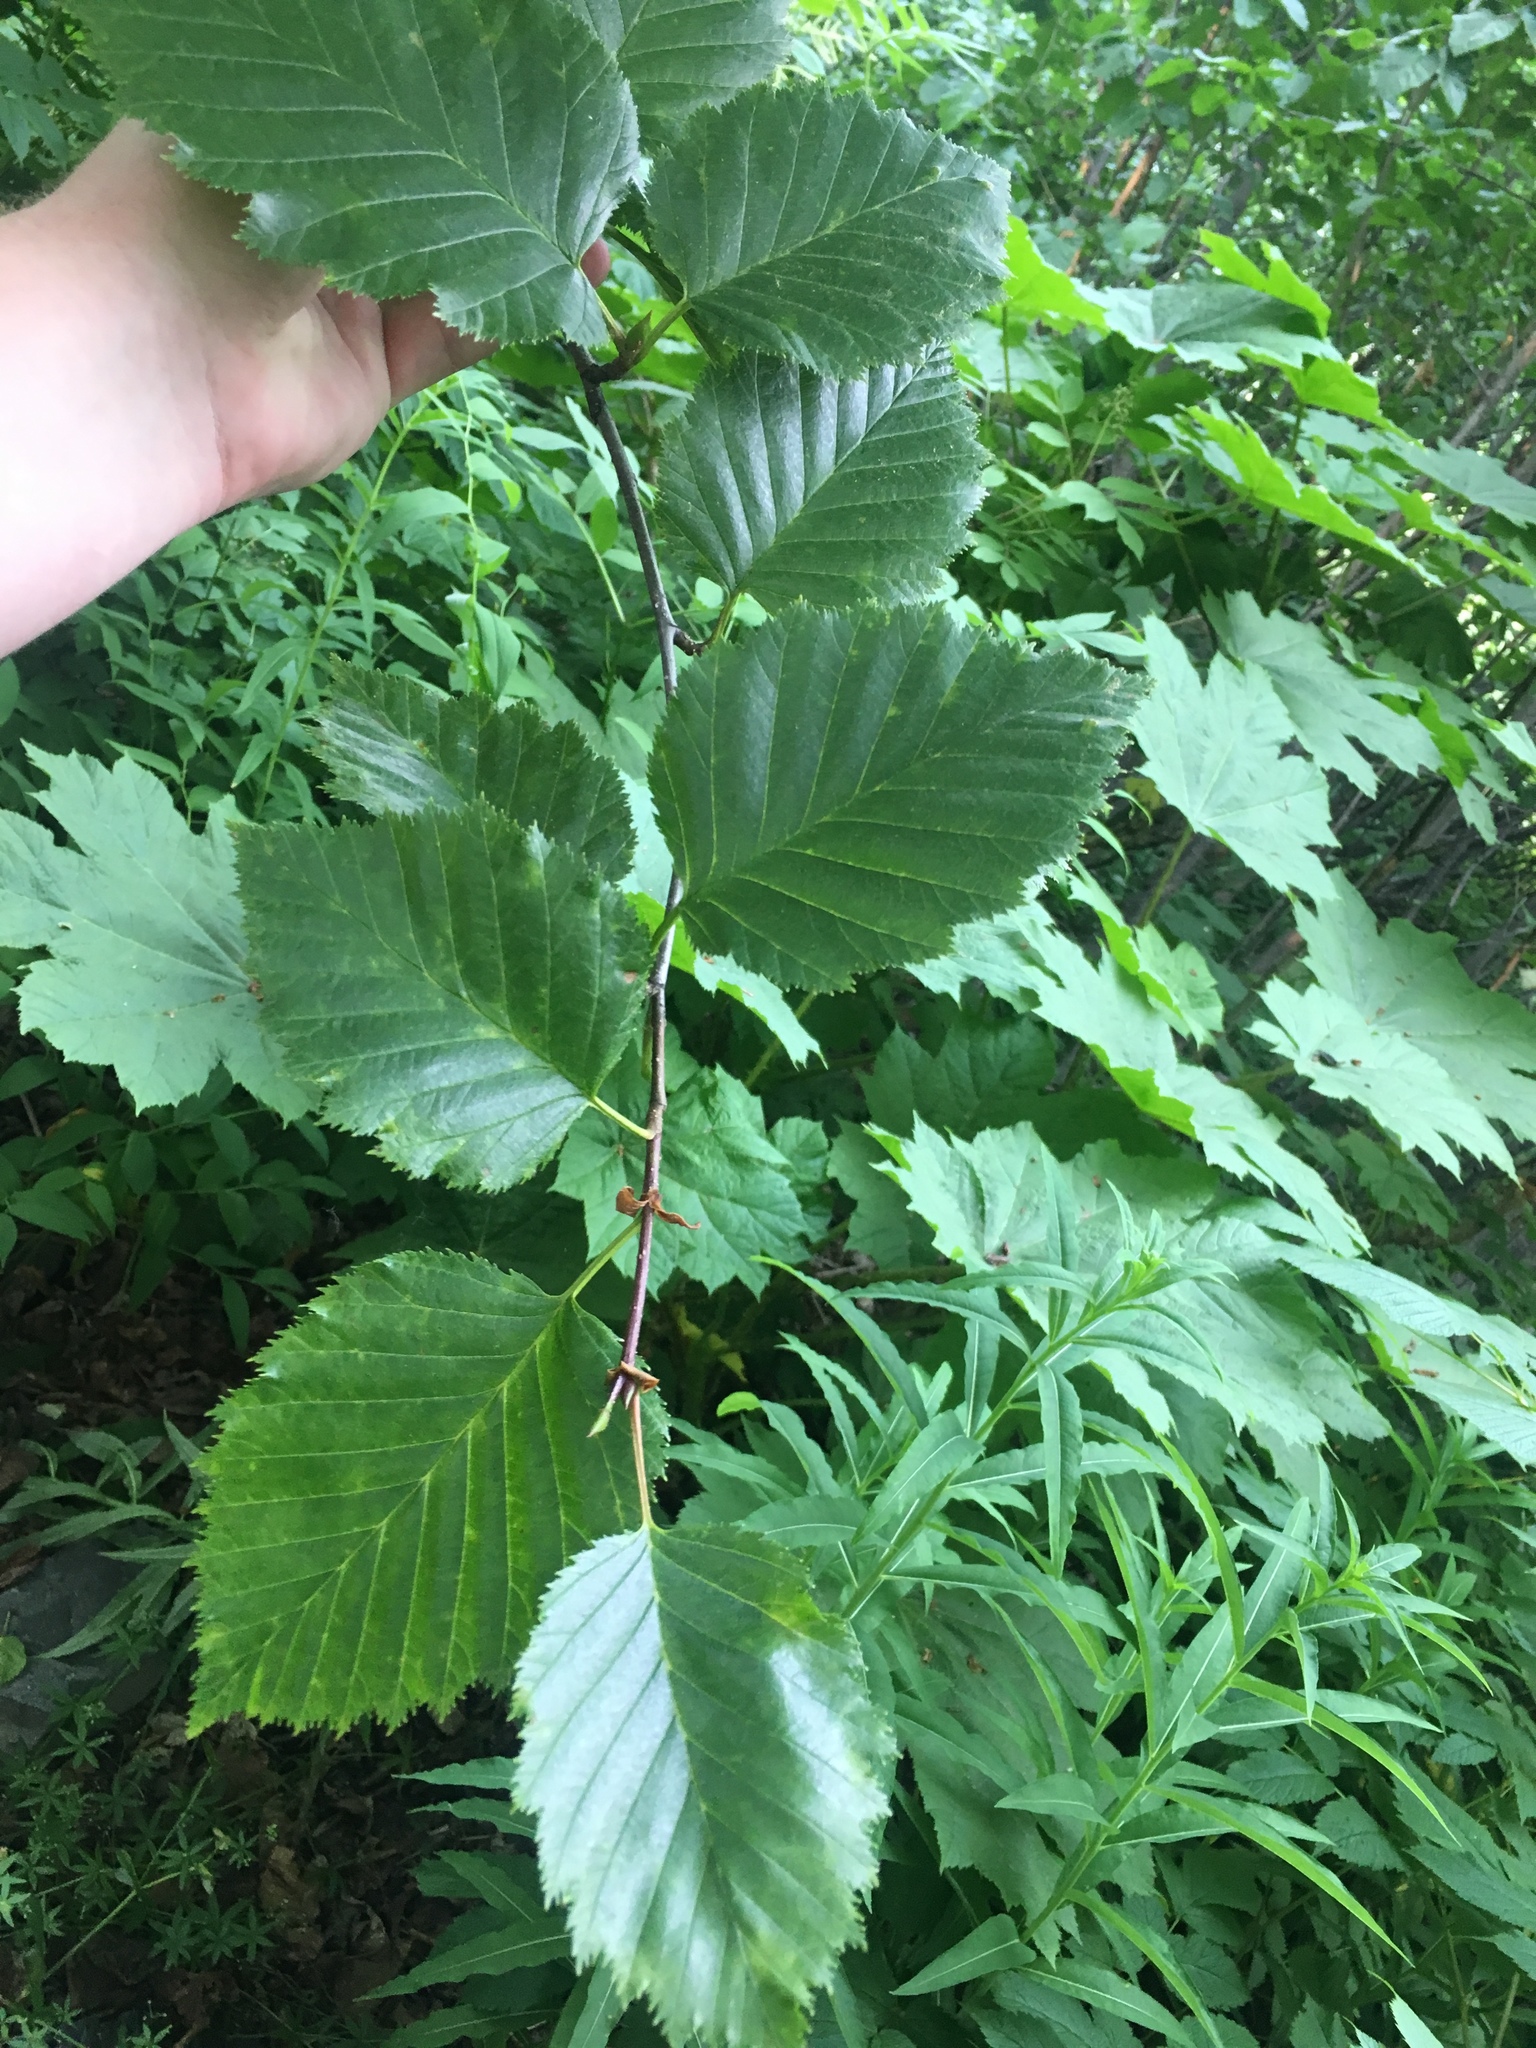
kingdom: Plantae
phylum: Tracheophyta
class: Magnoliopsida
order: Fagales
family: Betulaceae
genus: Alnus
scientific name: Alnus alnobetula
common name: Green alder
